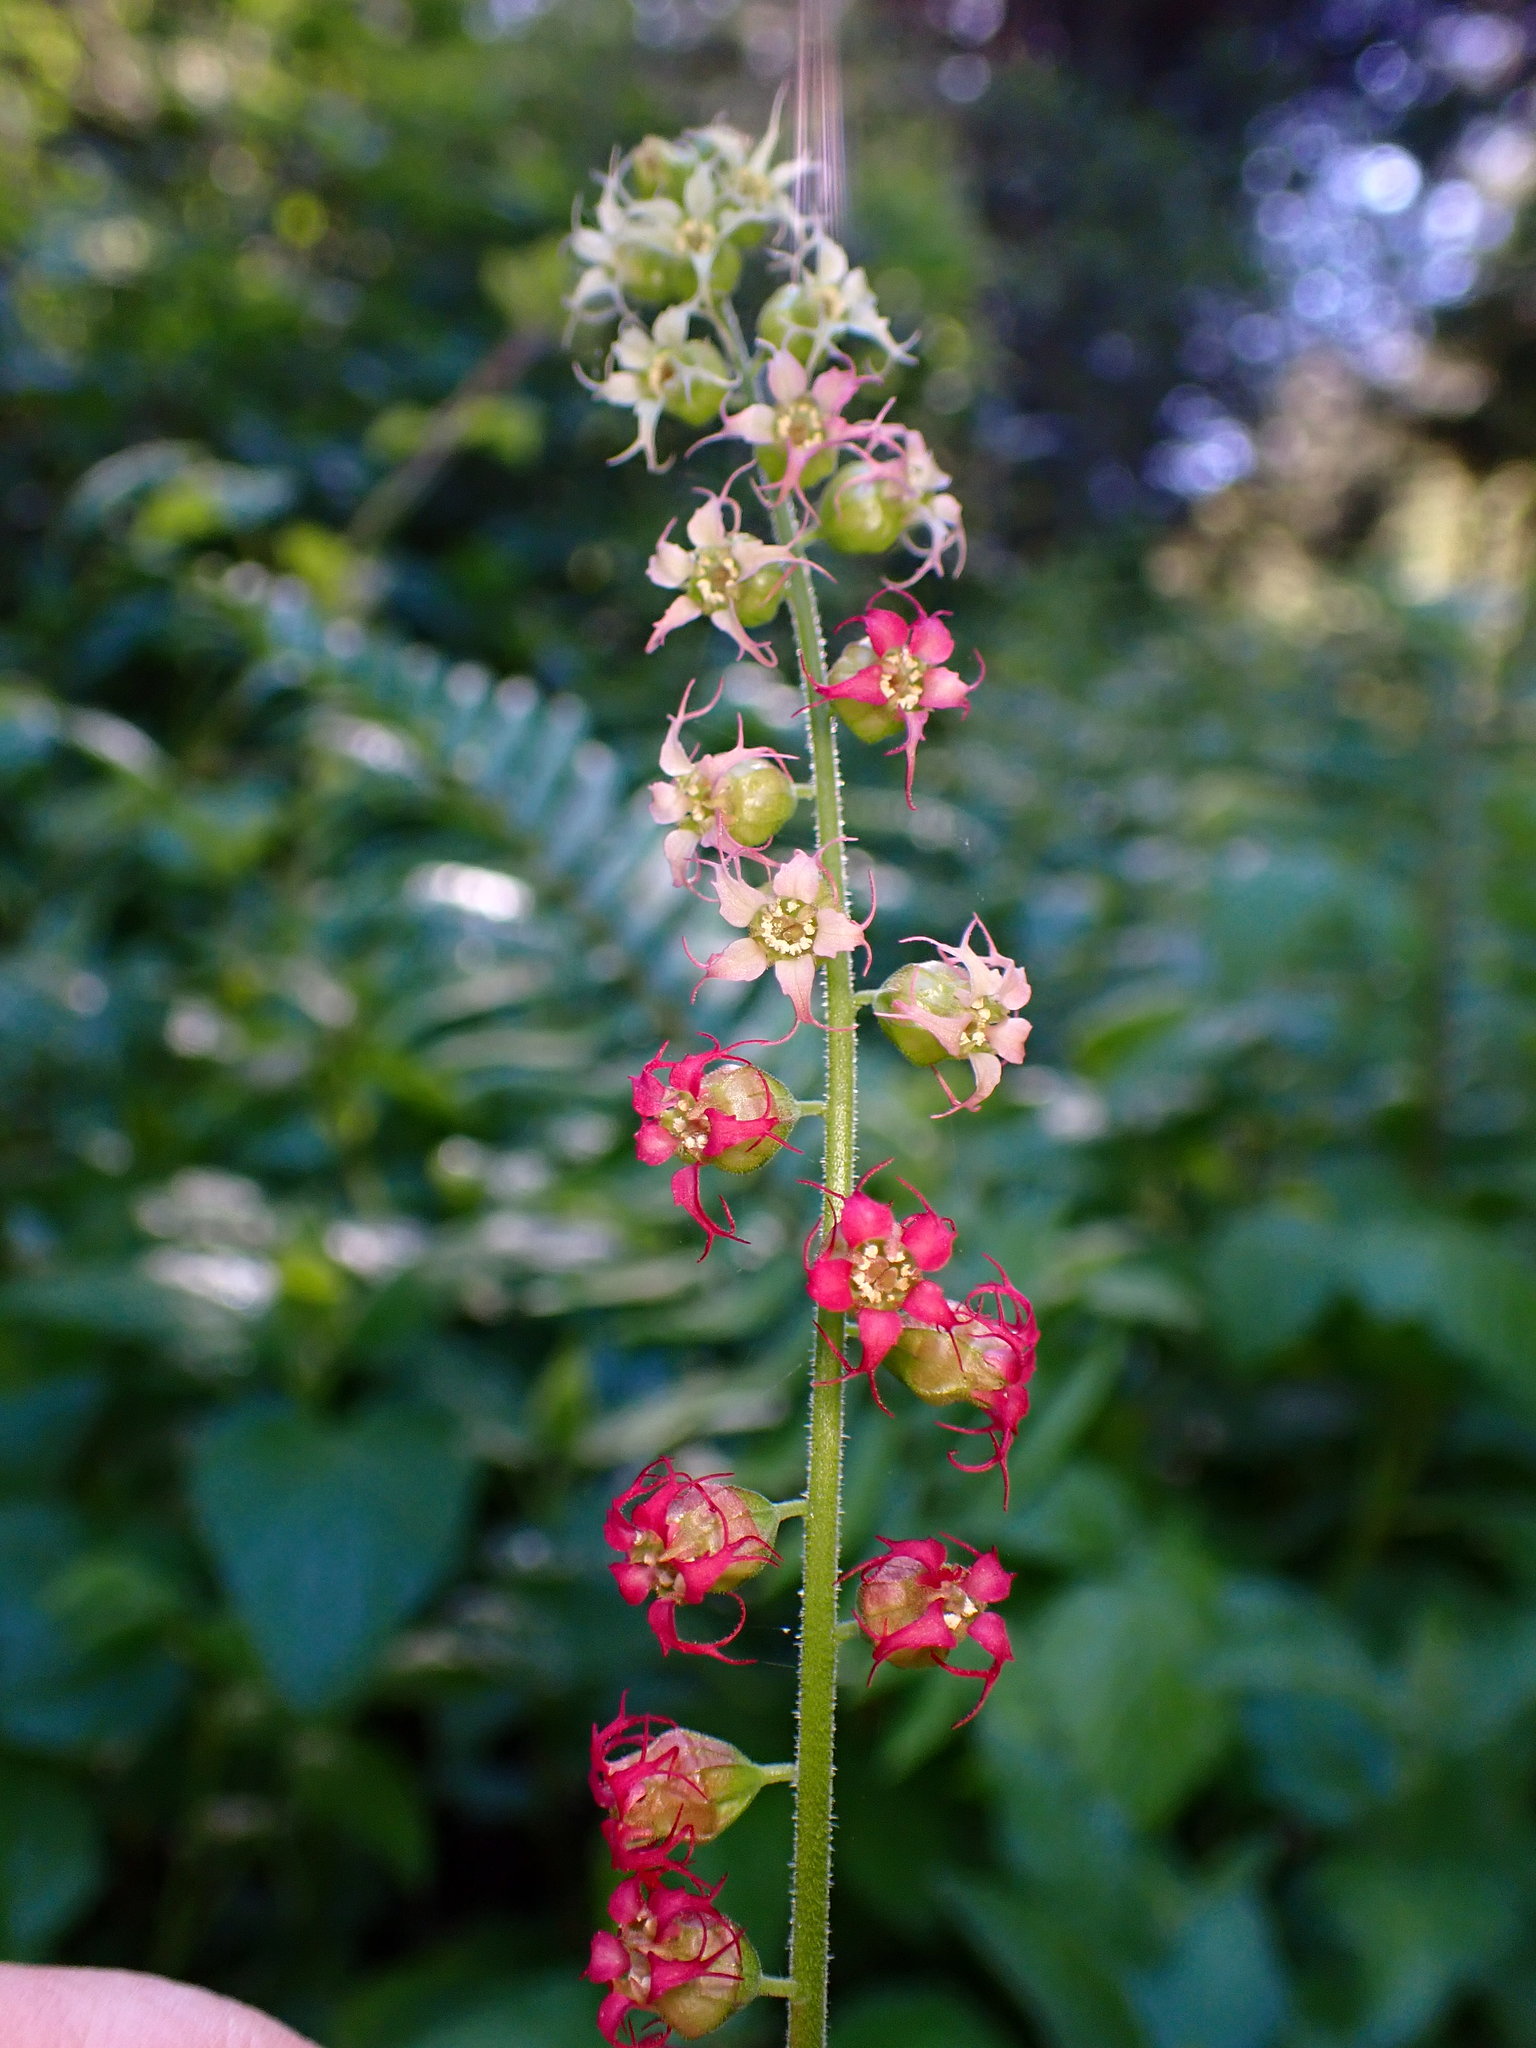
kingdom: Plantae
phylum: Tracheophyta
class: Magnoliopsida
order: Saxifragales
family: Saxifragaceae
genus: Tellima
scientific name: Tellima grandiflora
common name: Fringecups
